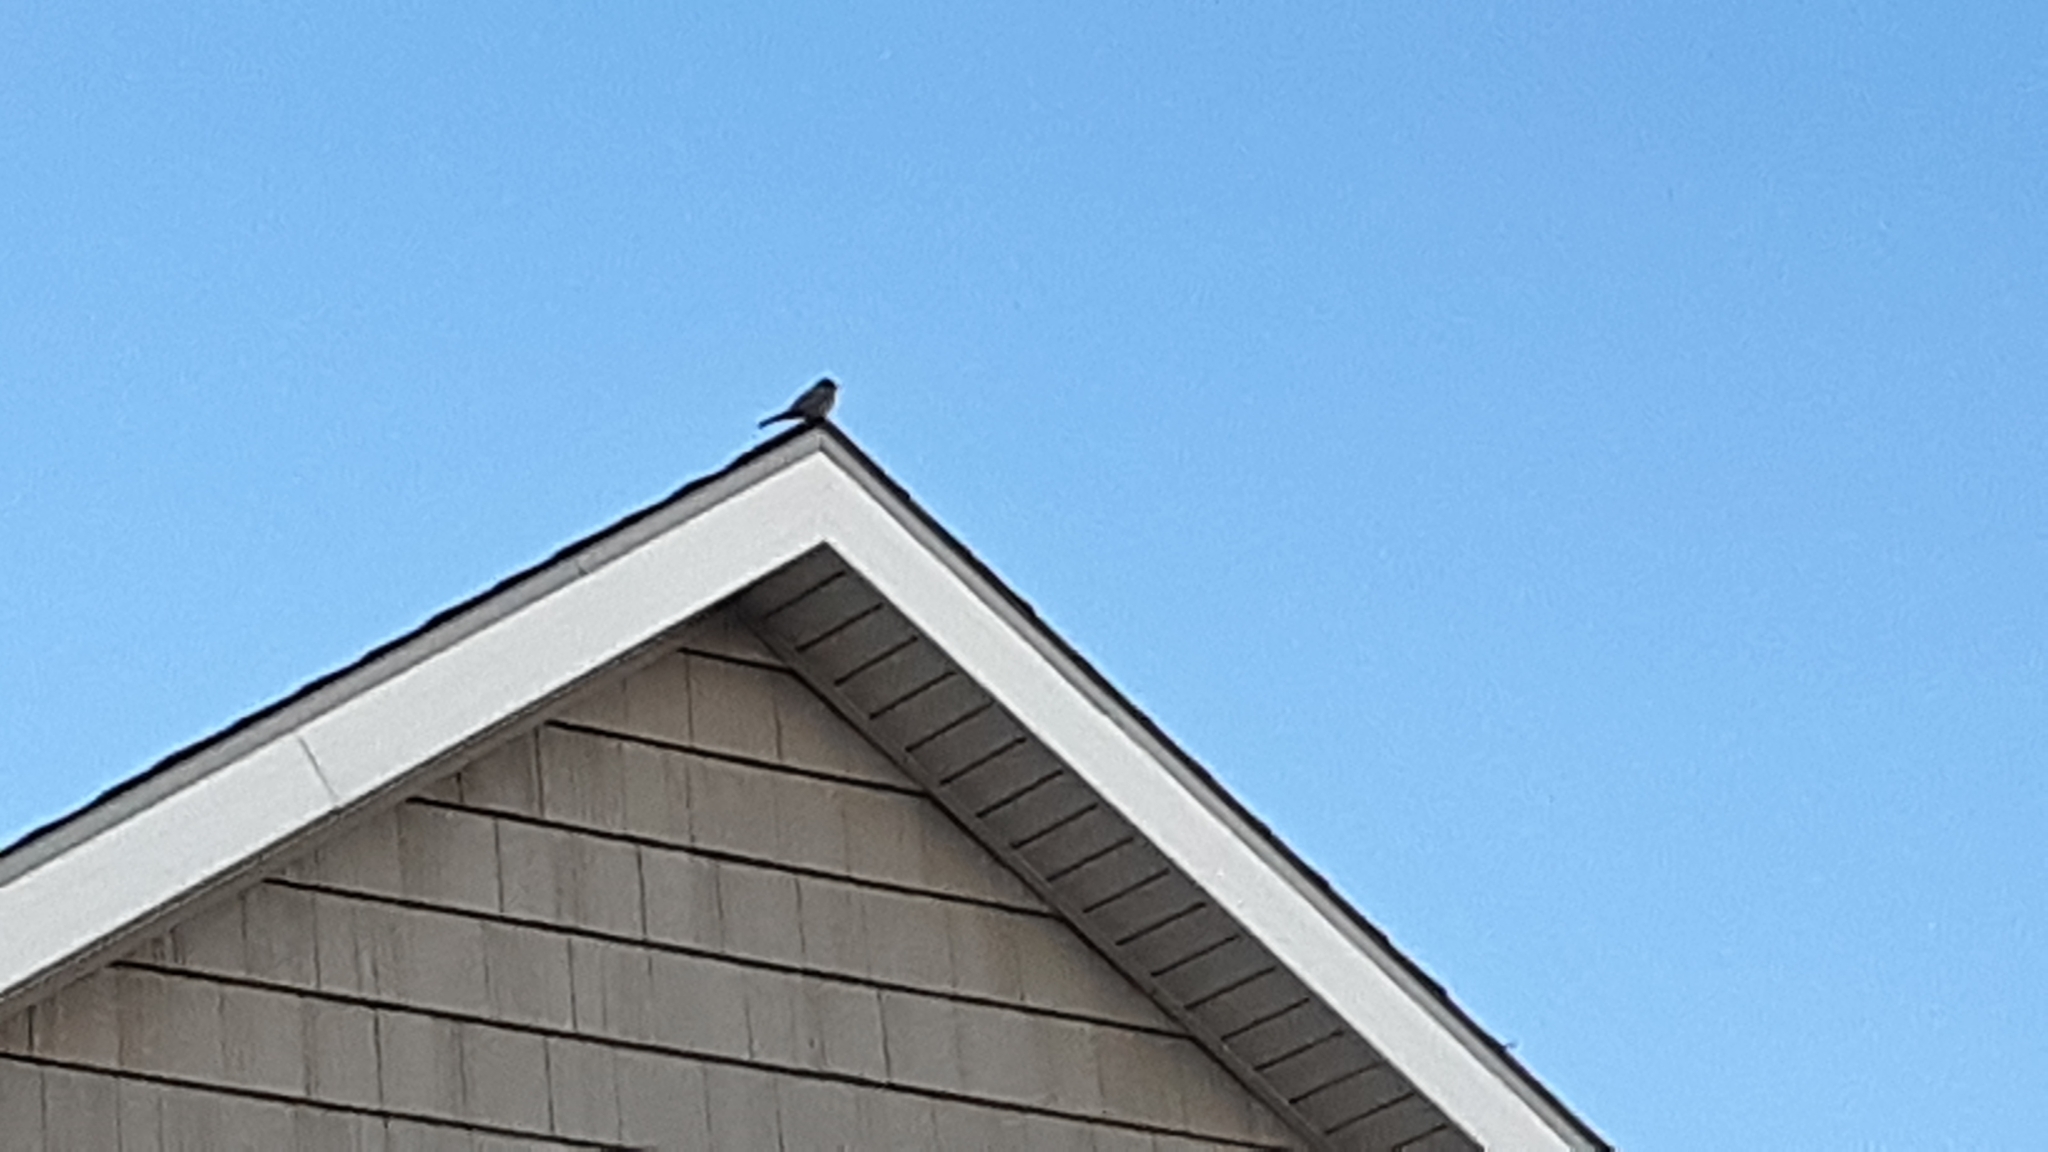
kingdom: Animalia
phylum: Chordata
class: Aves
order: Passeriformes
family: Tyrannidae
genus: Sayornis
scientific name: Sayornis saya
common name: Say's phoebe
